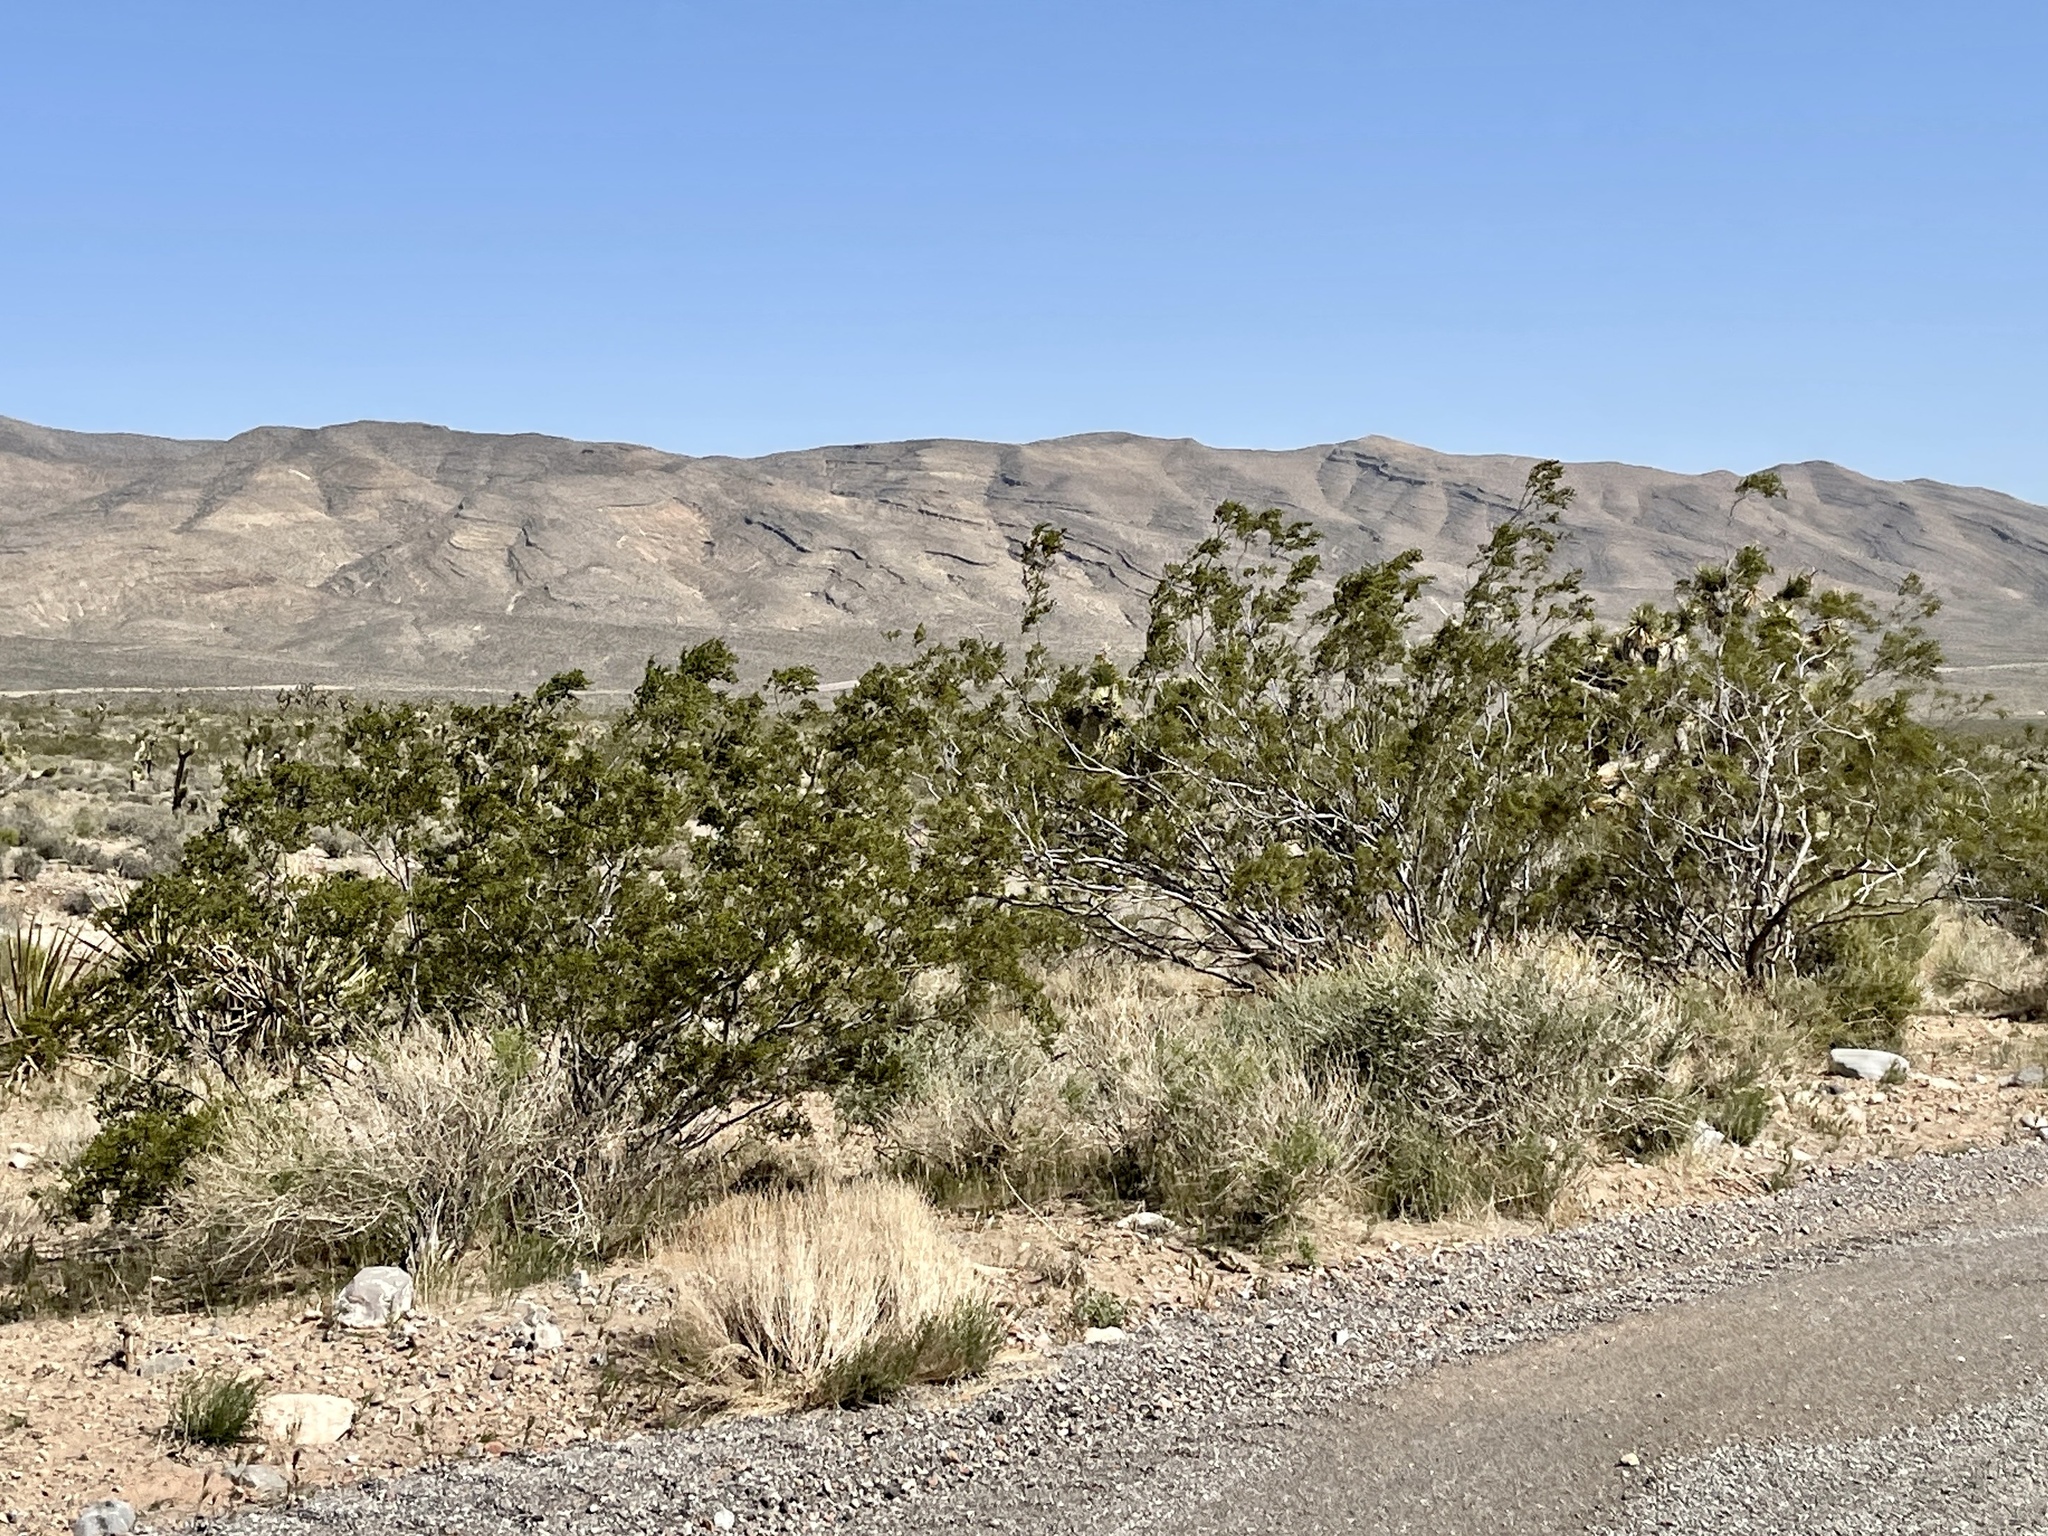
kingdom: Plantae
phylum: Tracheophyta
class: Magnoliopsida
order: Zygophyllales
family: Zygophyllaceae
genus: Larrea
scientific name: Larrea tridentata
